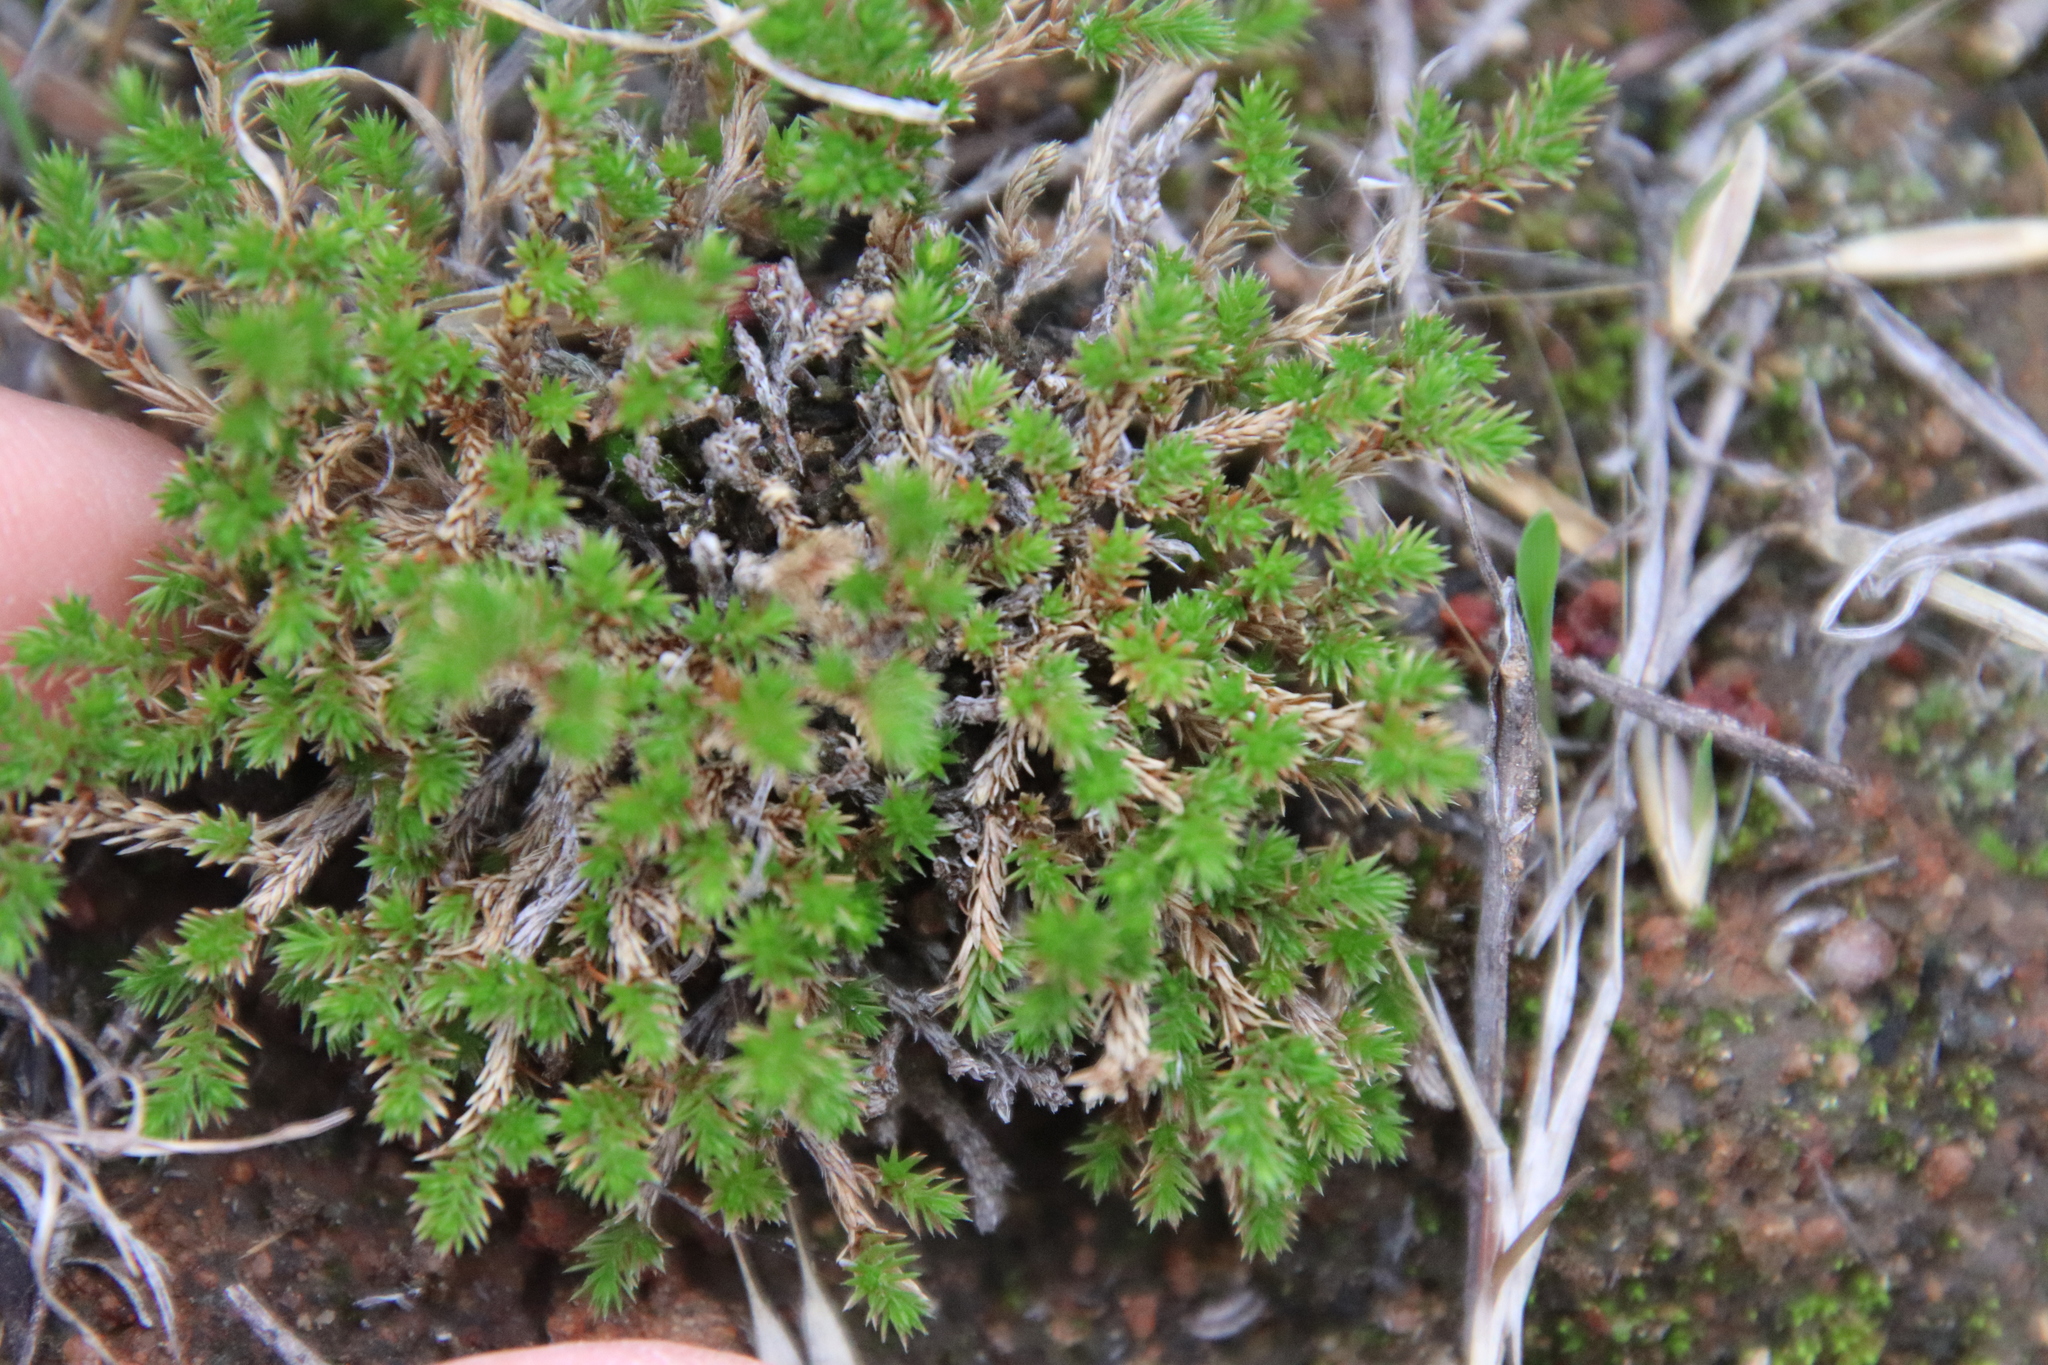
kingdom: Plantae
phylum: Tracheophyta
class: Lycopodiopsida
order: Selaginellales
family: Selaginellaceae
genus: Selaginella
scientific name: Selaginella bigelovii
